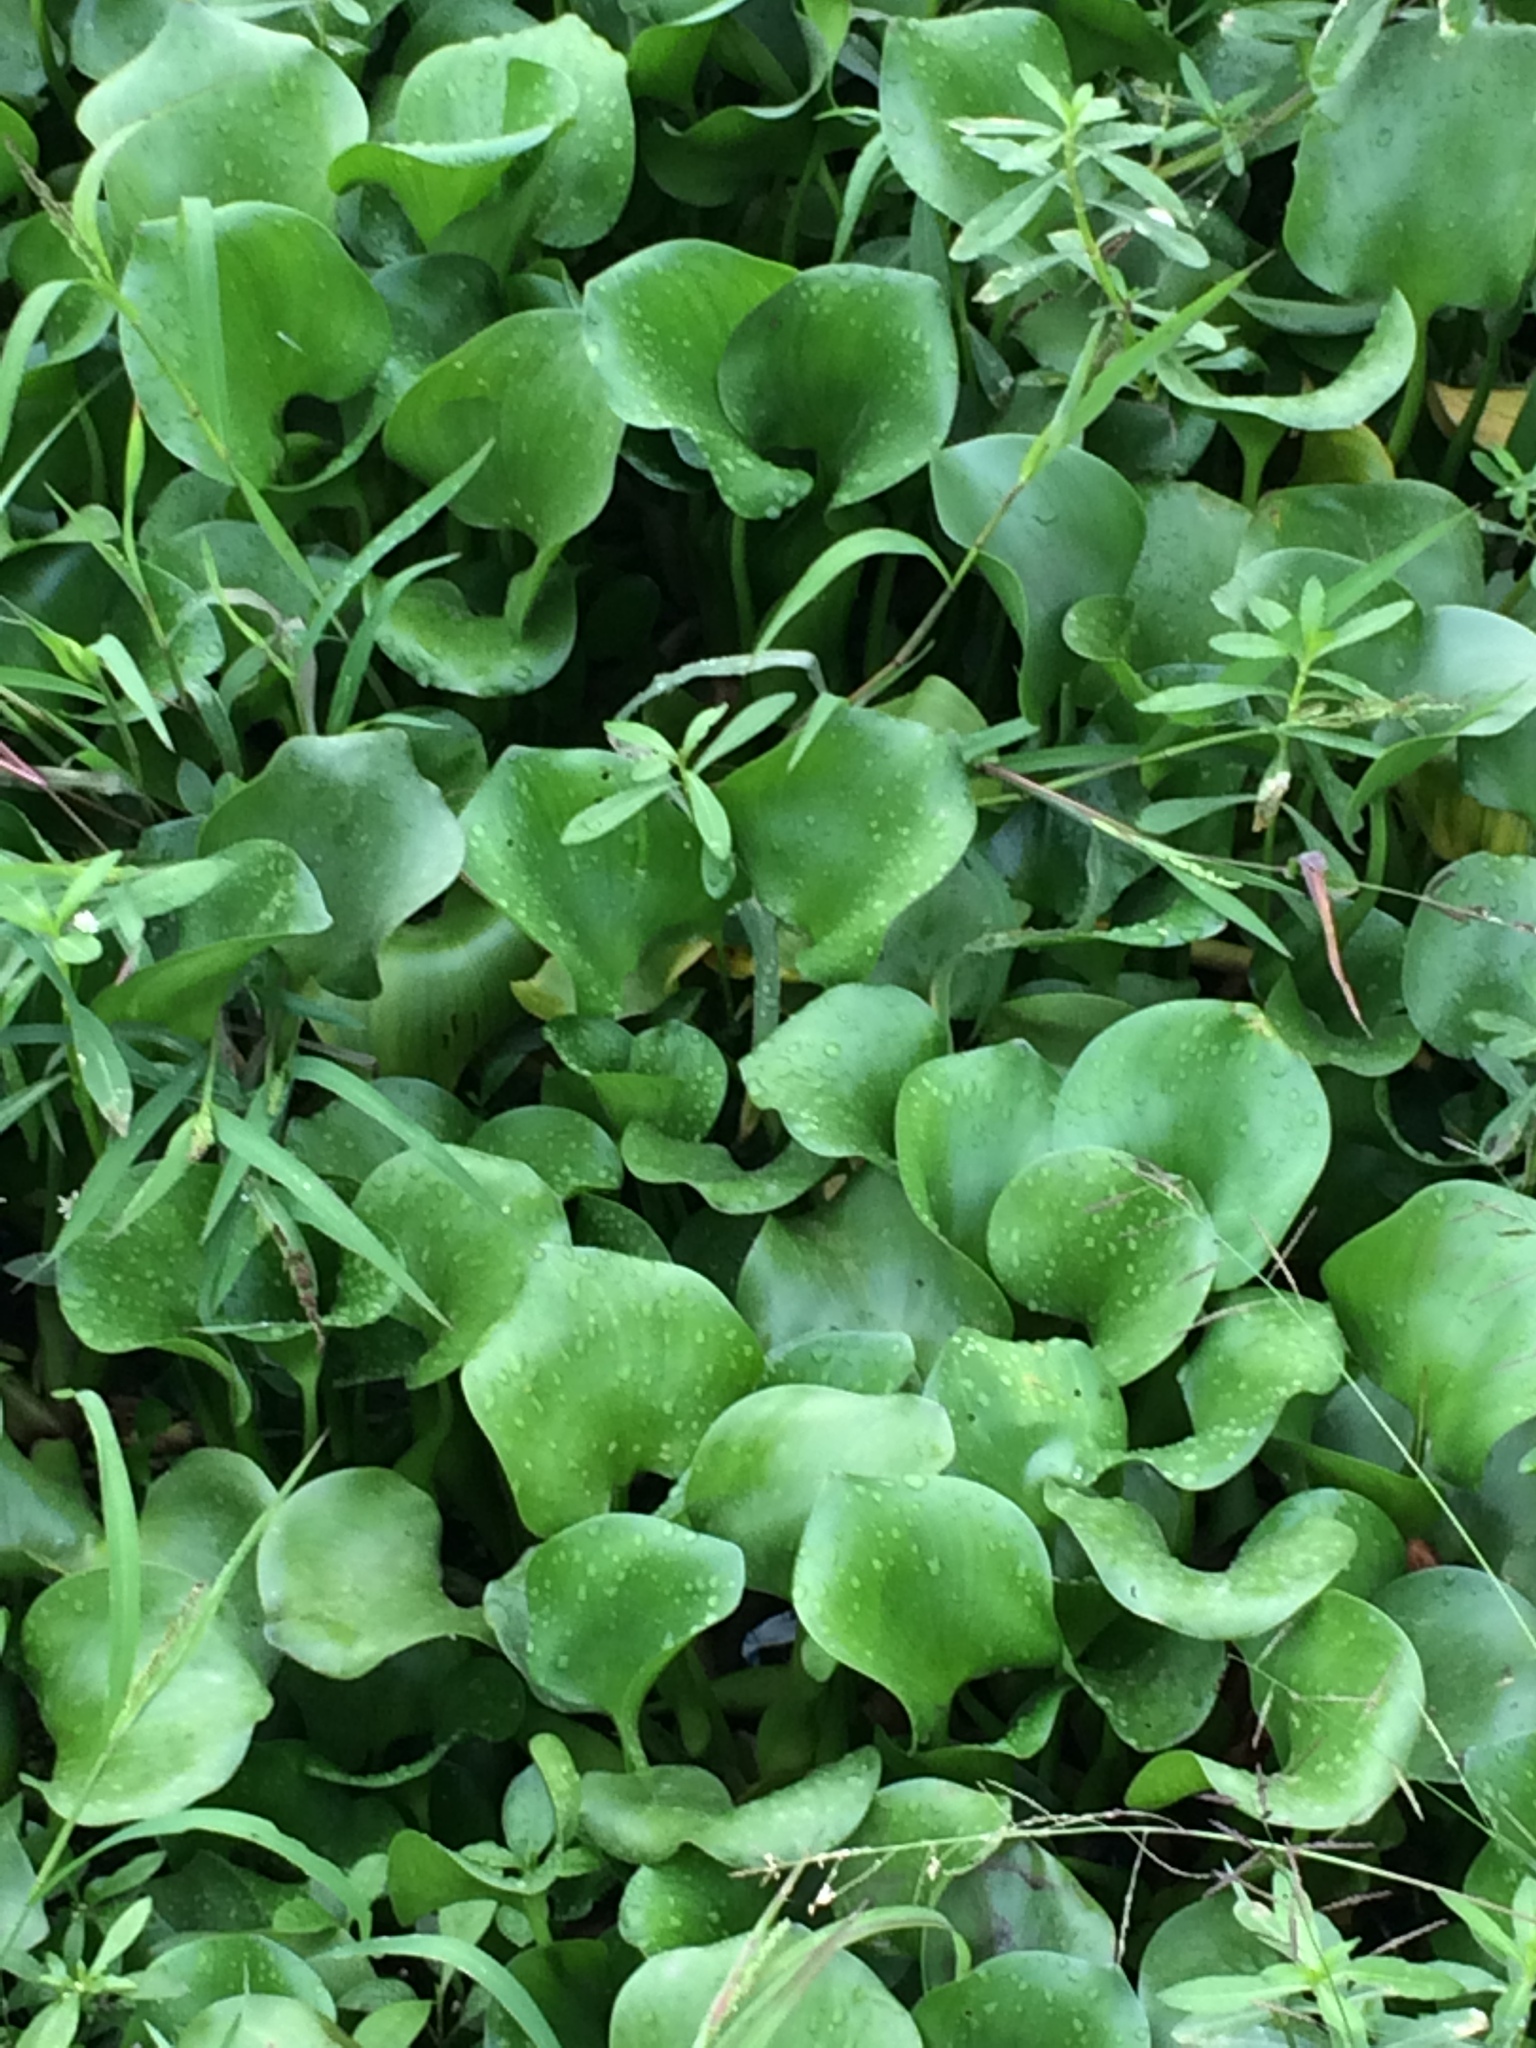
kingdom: Plantae
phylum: Tracheophyta
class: Liliopsida
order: Commelinales
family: Pontederiaceae
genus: Pontederia
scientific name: Pontederia crassipes
